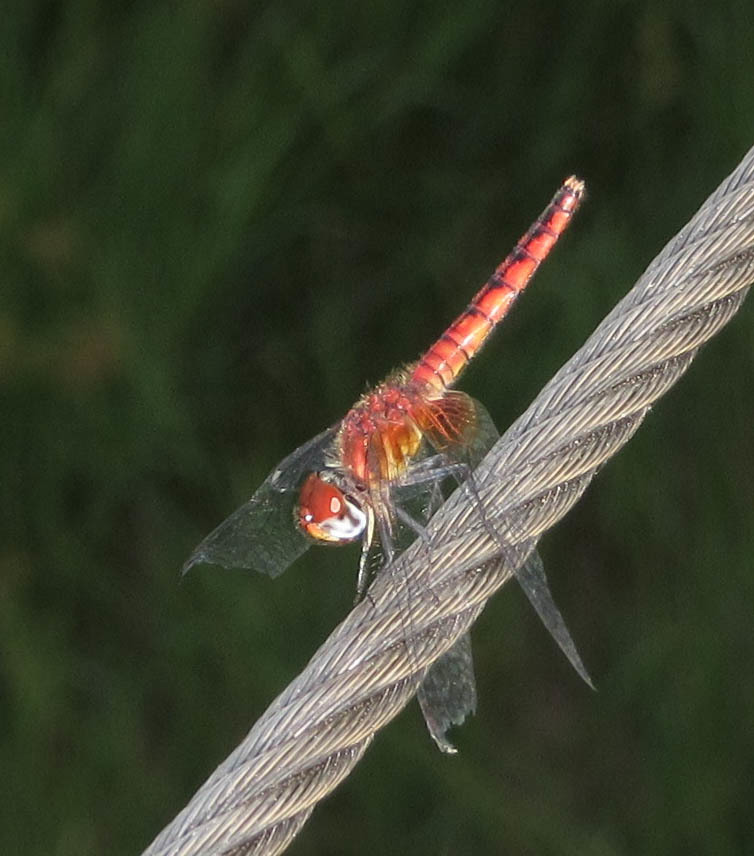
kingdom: Animalia
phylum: Arthropoda
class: Insecta
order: Odonata
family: Libellulidae
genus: Aethriamanta
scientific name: Aethriamanta rezia
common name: Pygmy basker
